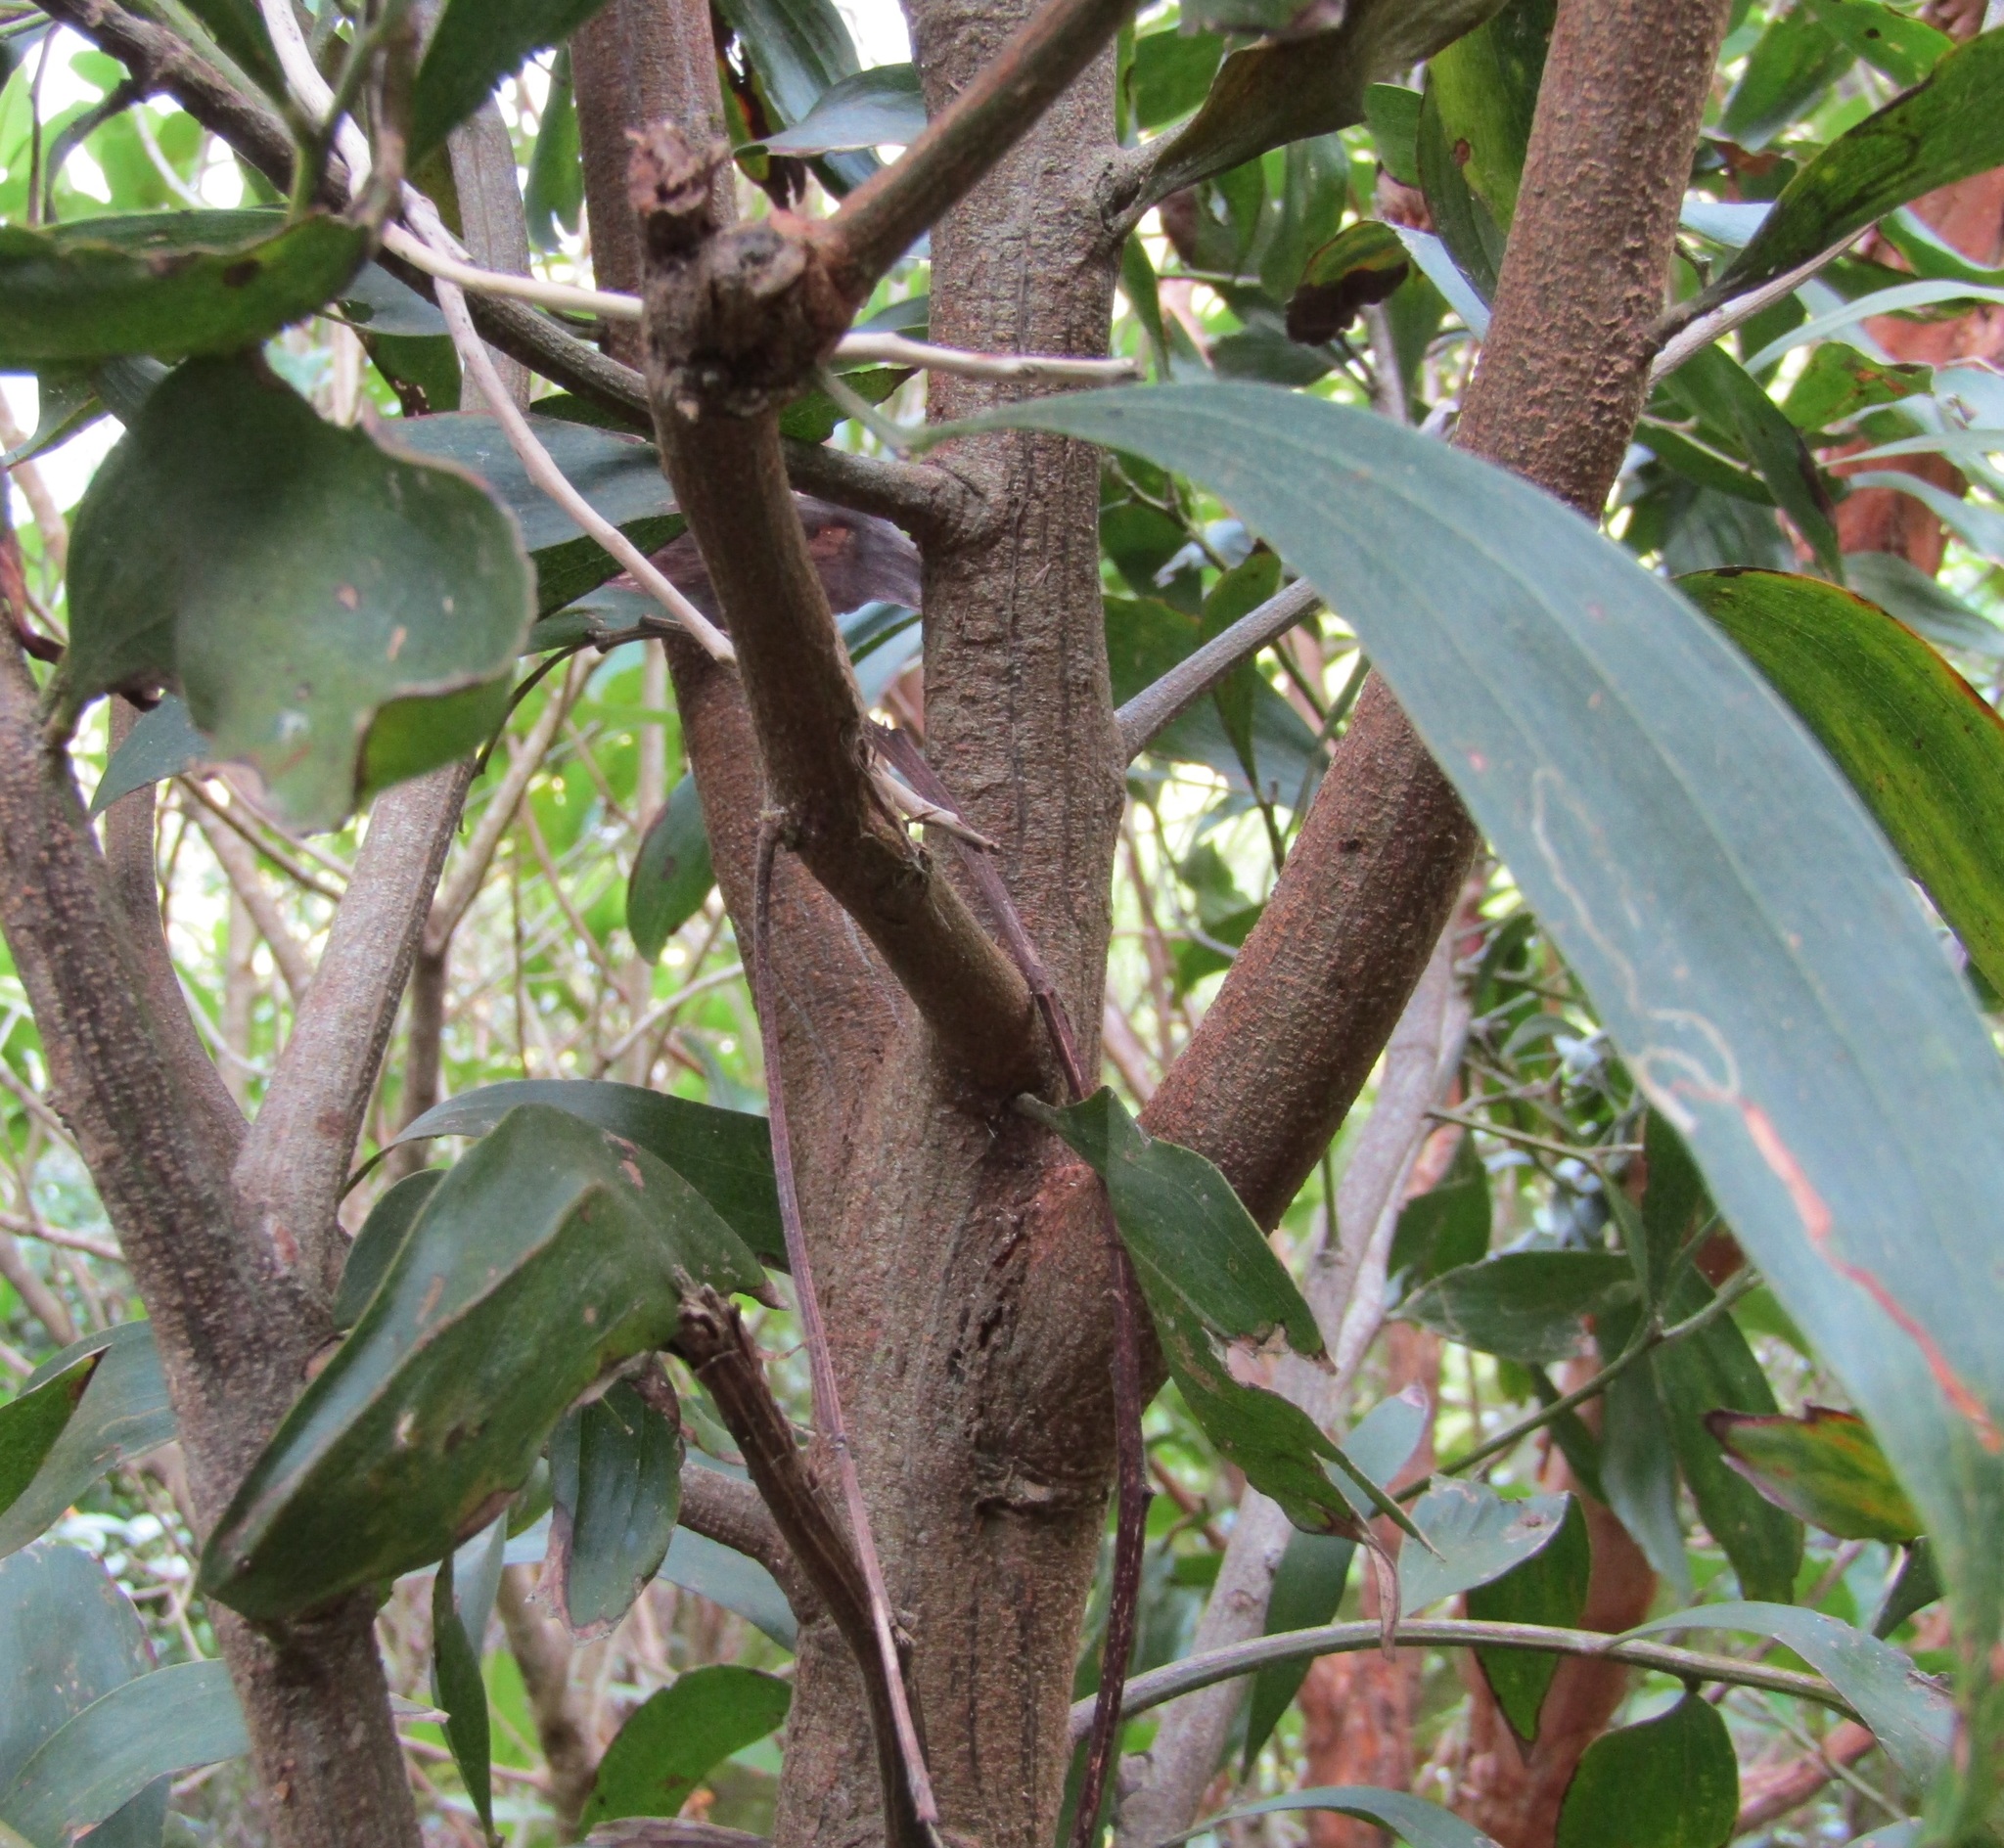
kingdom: Plantae
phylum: Tracheophyta
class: Magnoliopsida
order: Fabales
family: Fabaceae
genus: Acacia
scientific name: Acacia melanoxylon
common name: Blackwood
